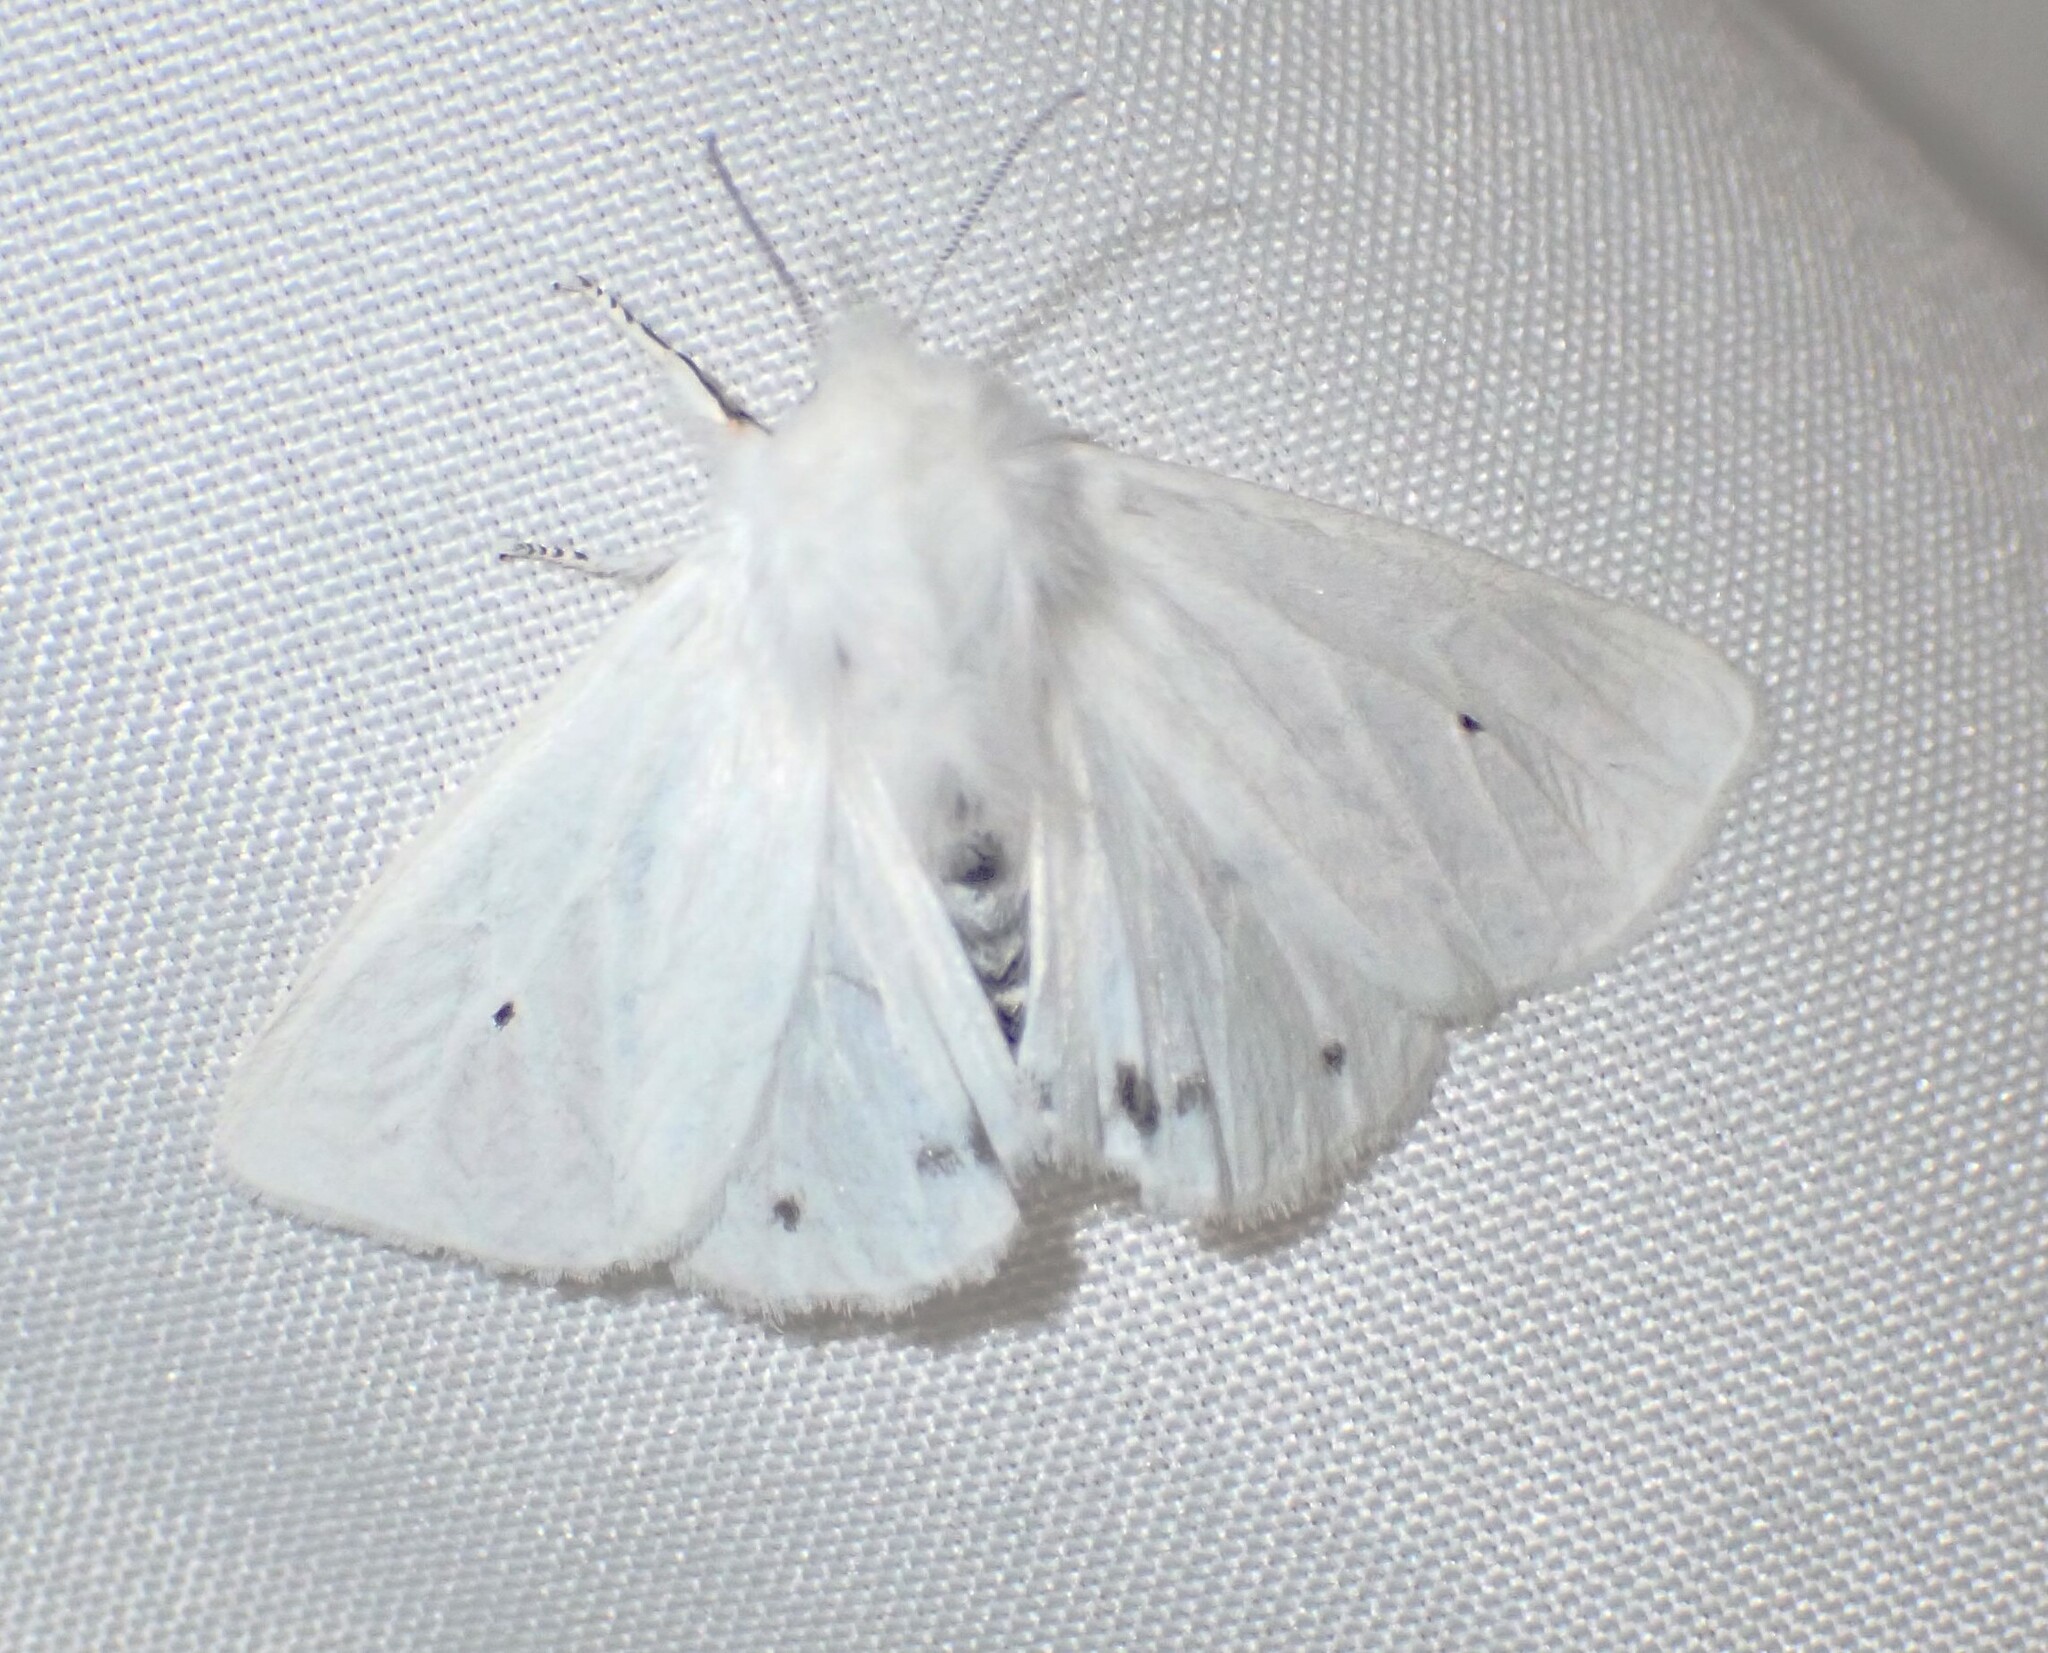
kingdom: Animalia
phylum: Arthropoda
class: Insecta
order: Lepidoptera
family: Erebidae
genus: Spilosoma
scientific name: Spilosoma virginica
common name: Virginia tiger moth
